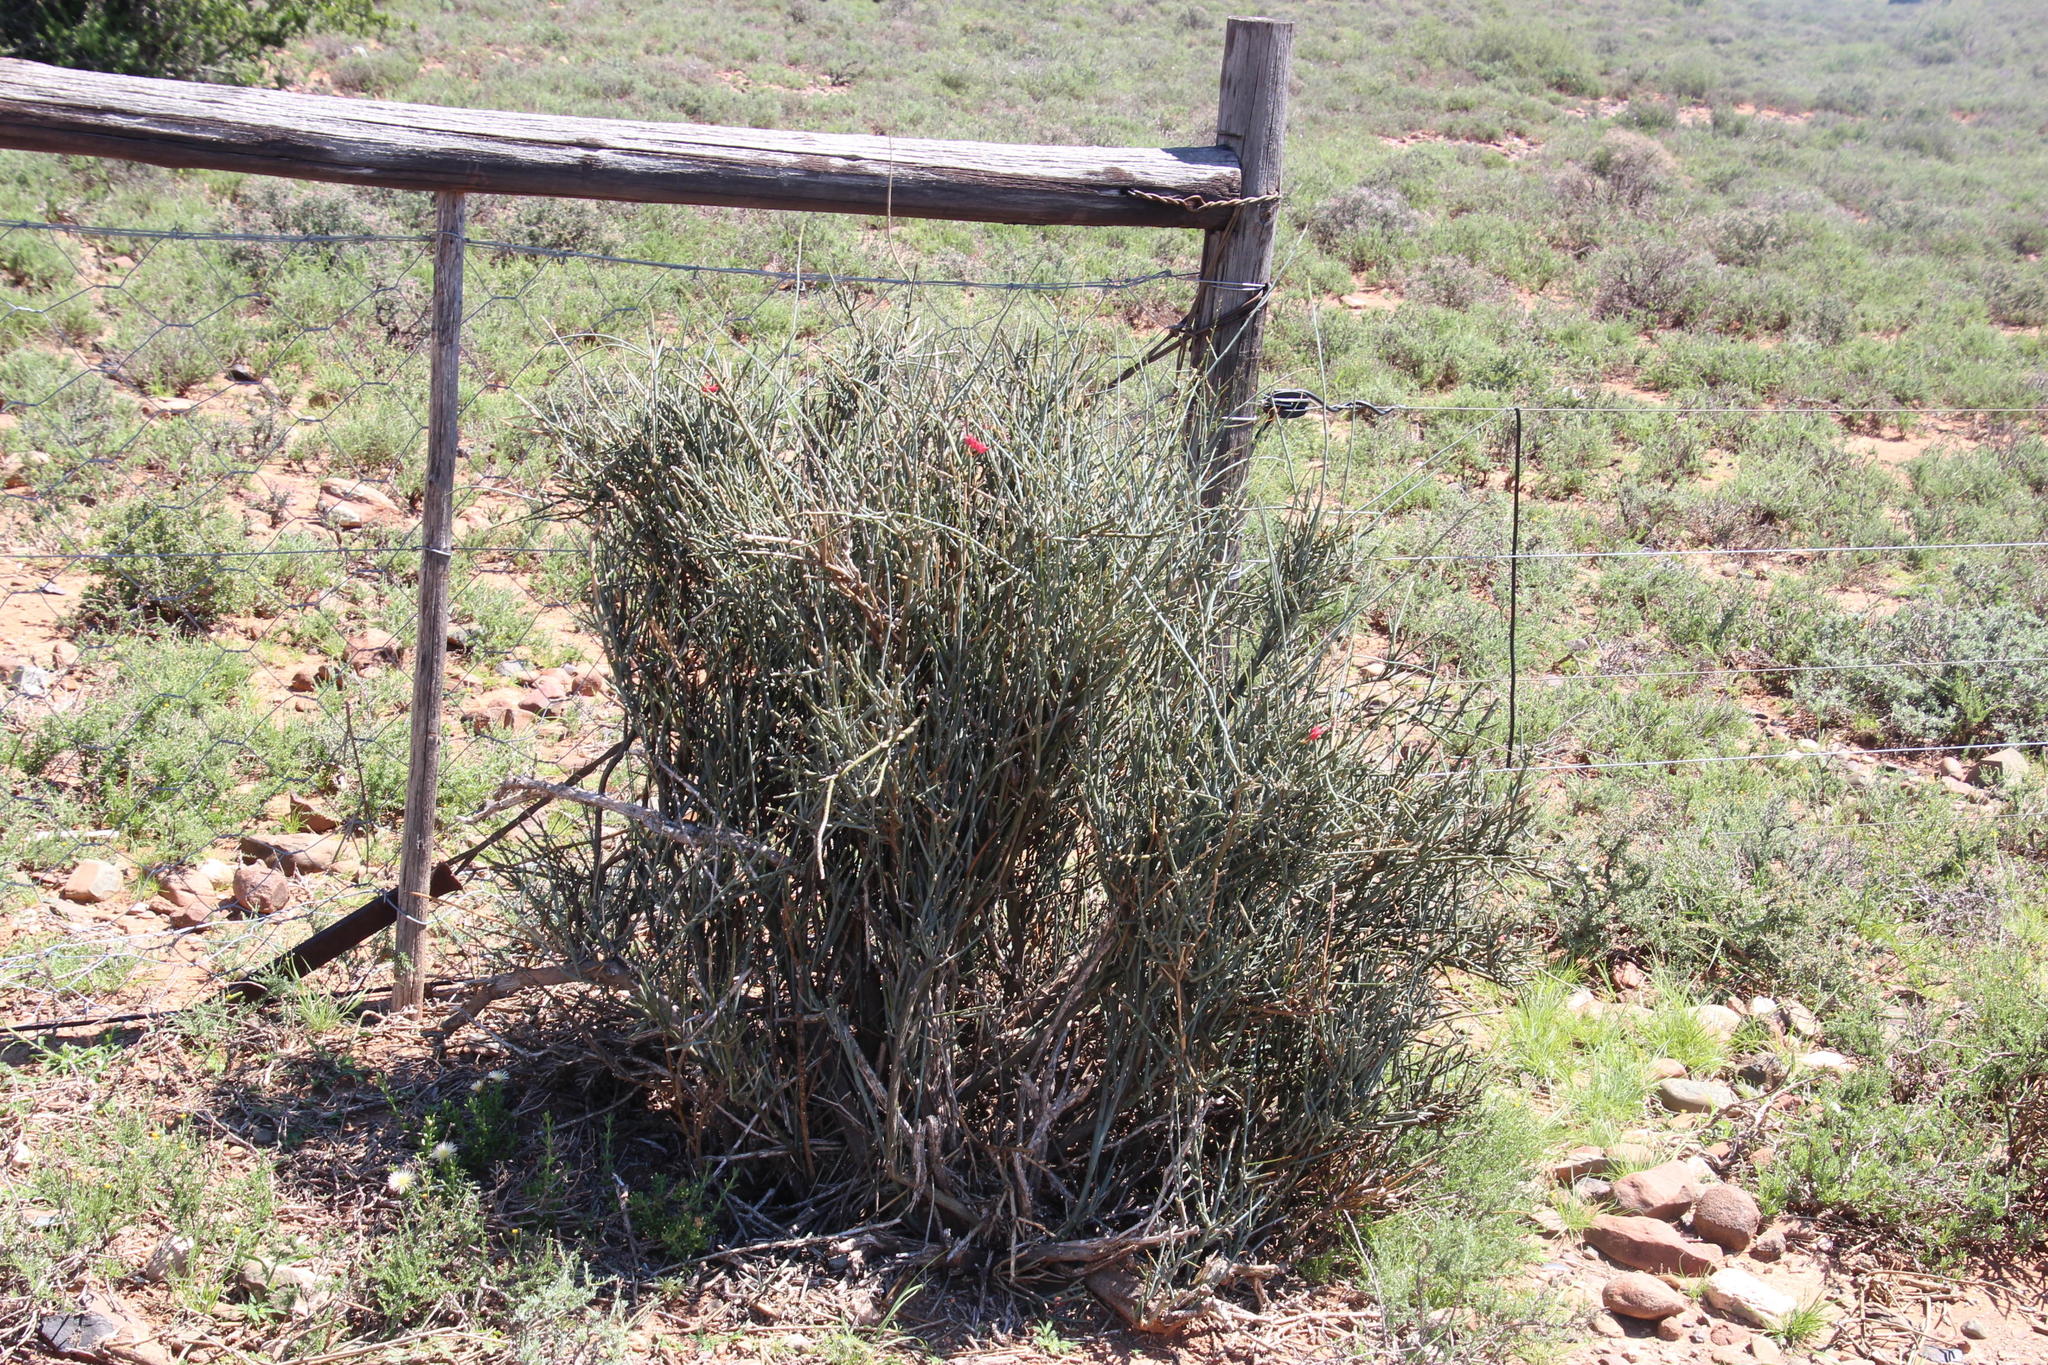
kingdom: Plantae
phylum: Tracheophyta
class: Magnoliopsida
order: Brassicales
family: Capparaceae
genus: Cadaba
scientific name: Cadaba aphylla
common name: Black storm
